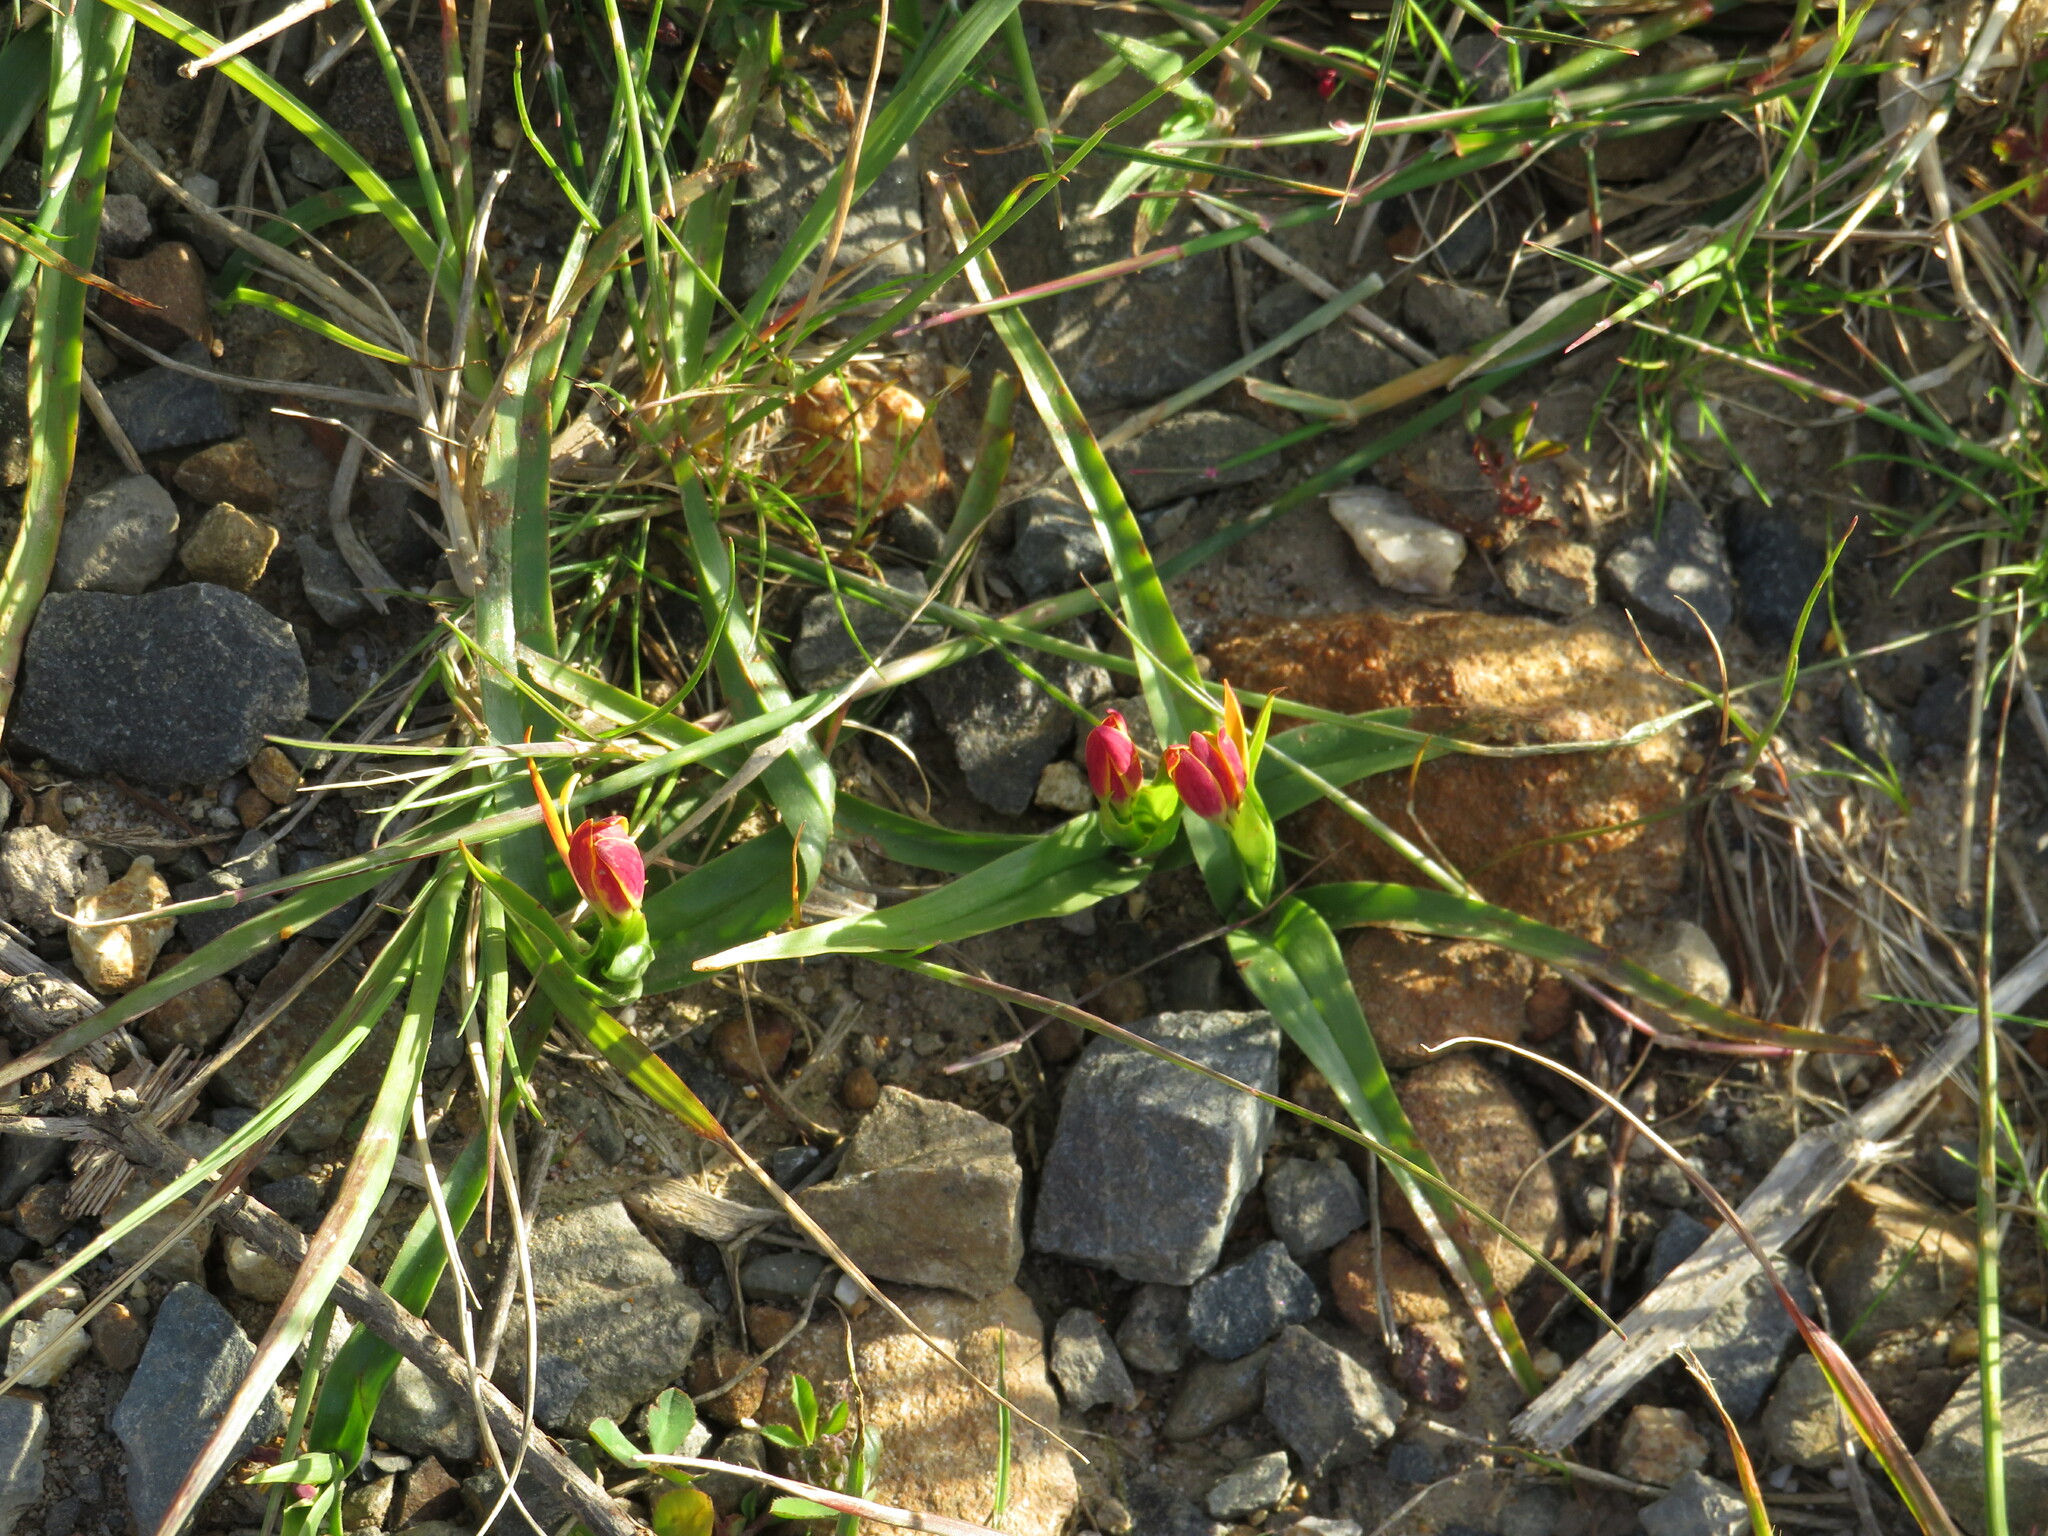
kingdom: Plantae
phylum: Tracheophyta
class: Liliopsida
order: Liliales
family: Colchicaceae
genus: Baeometra
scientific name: Baeometra uniflora
